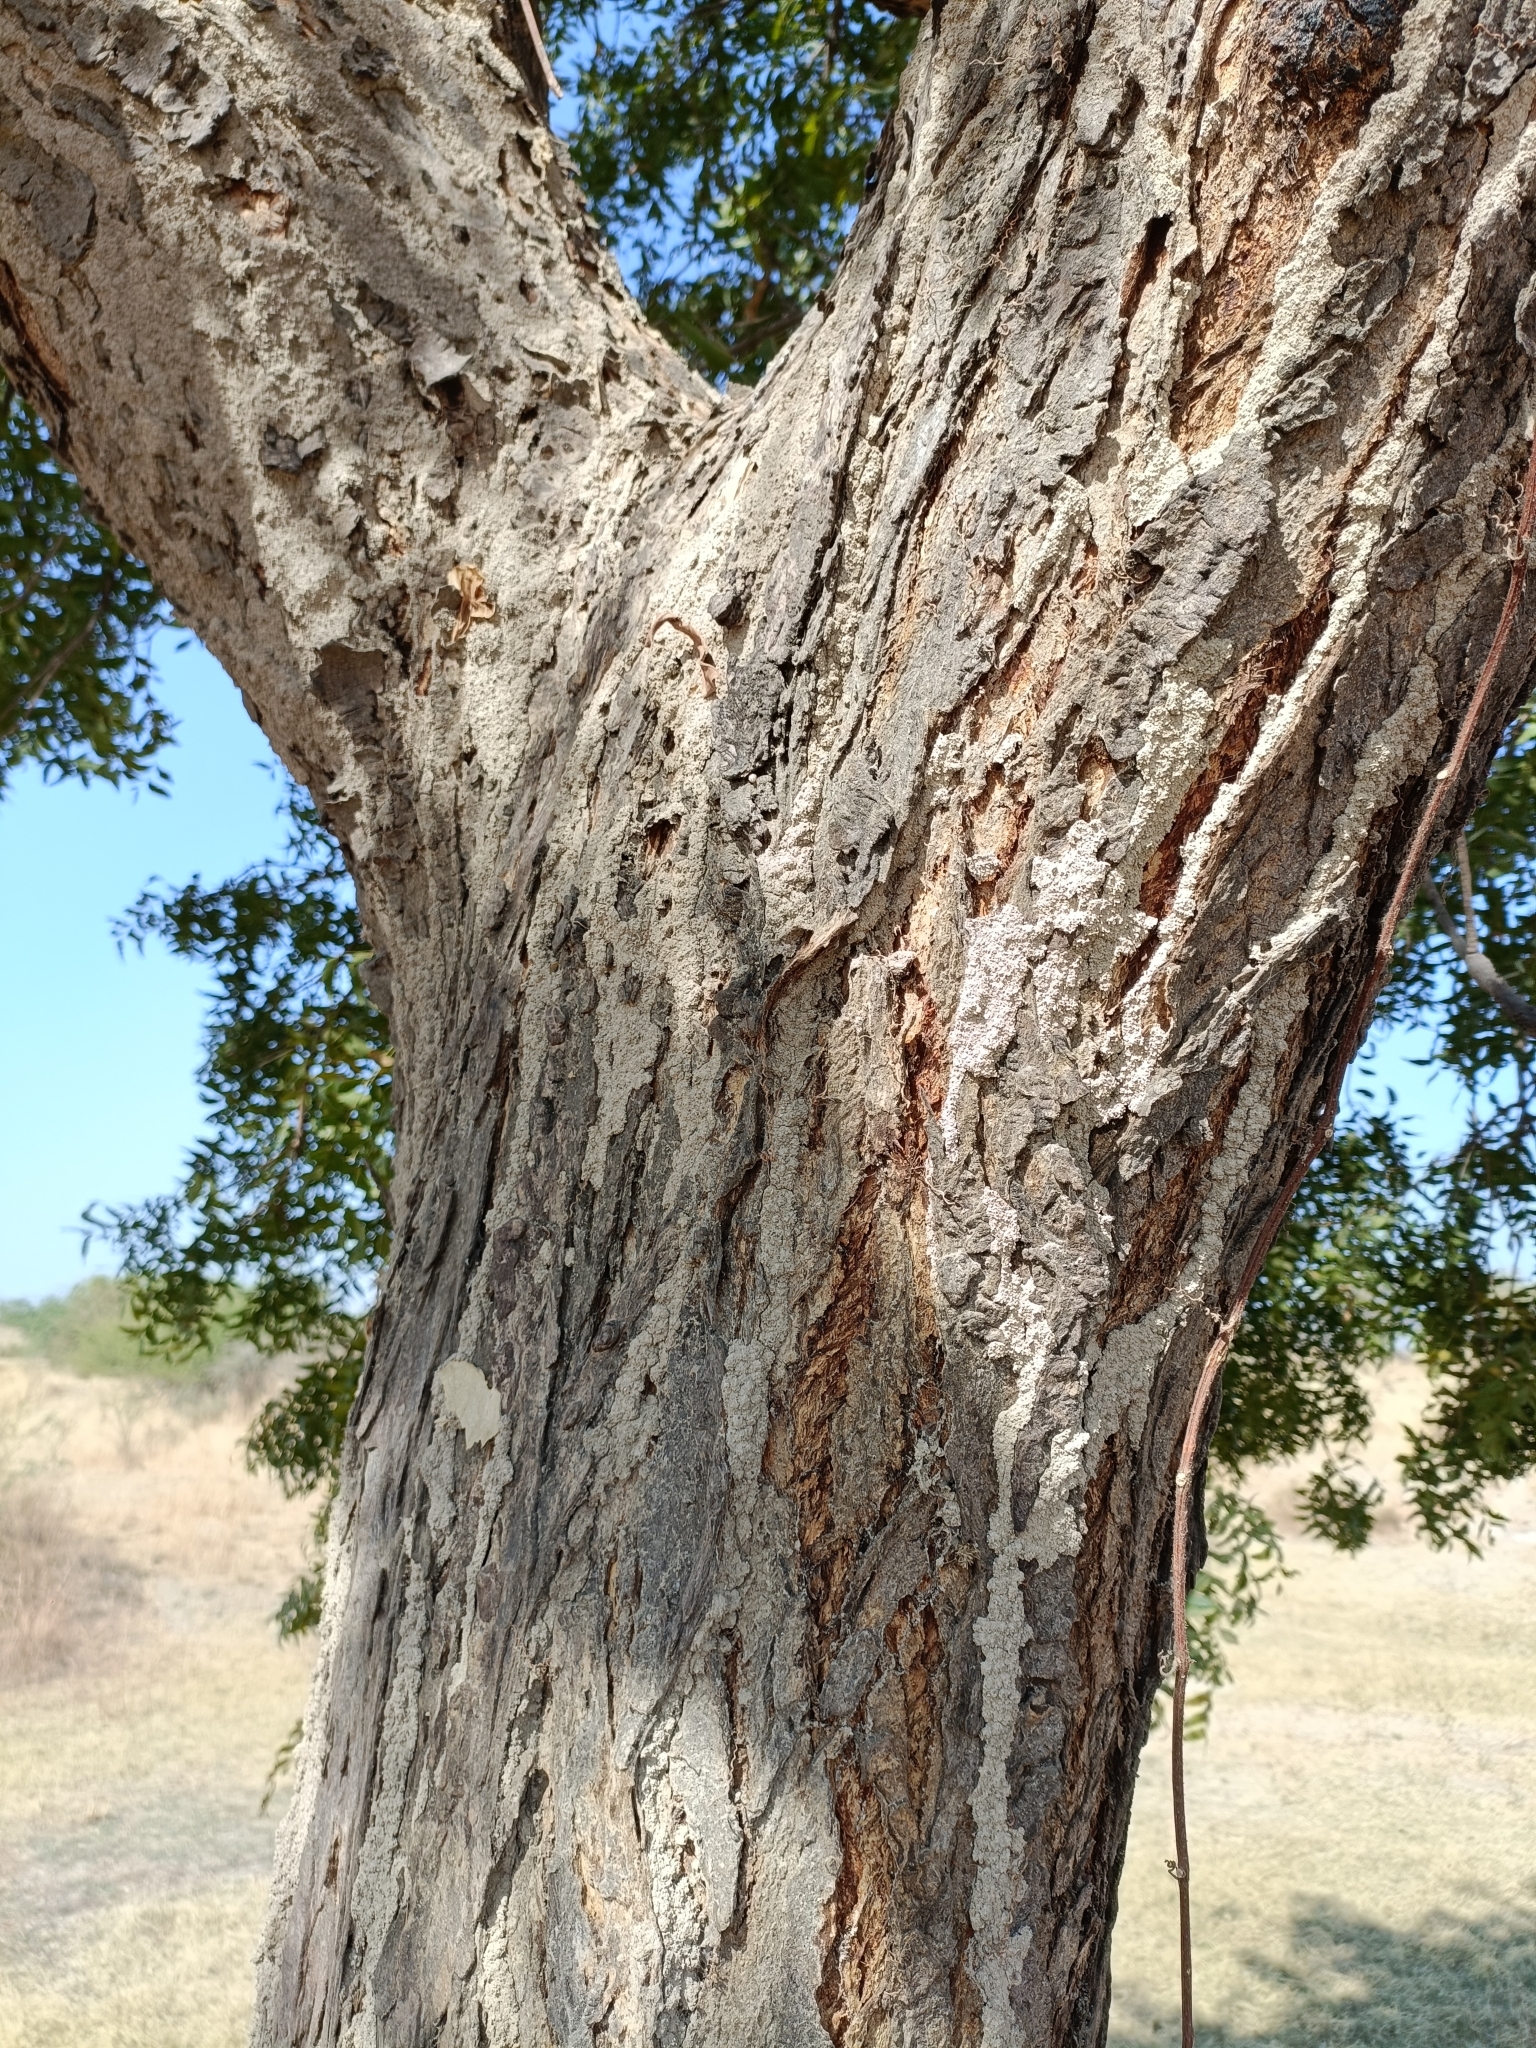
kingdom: Plantae
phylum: Tracheophyta
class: Magnoliopsida
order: Sapindales
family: Meliaceae
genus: Azadirachta
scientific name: Azadirachta indica
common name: Neem
